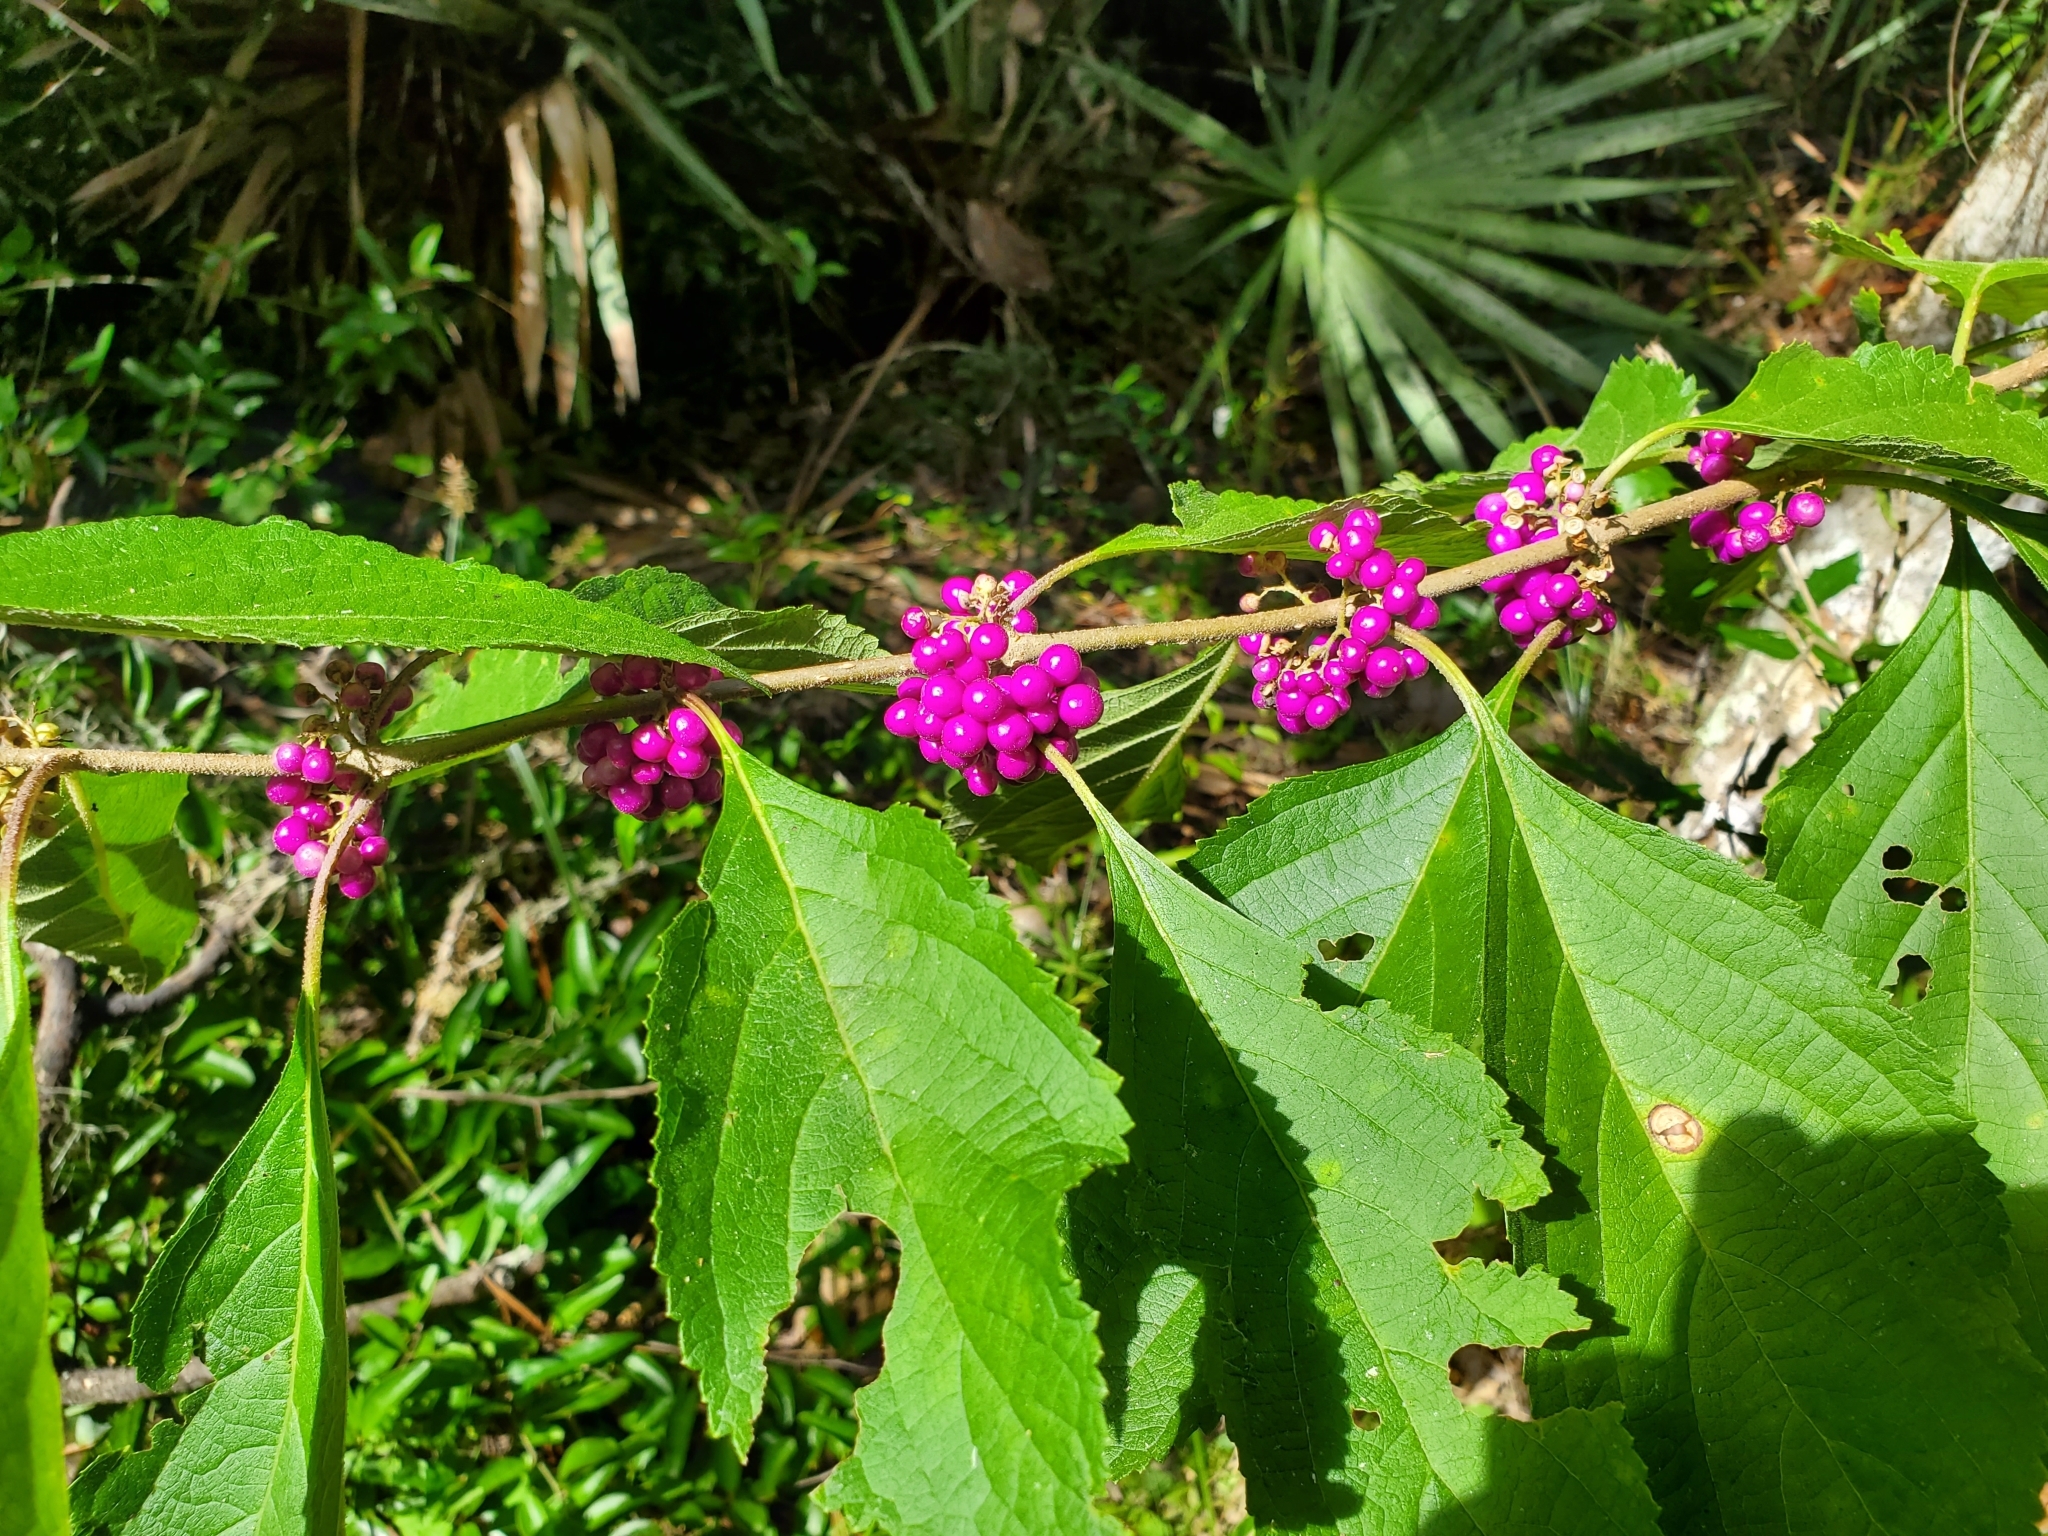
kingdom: Plantae
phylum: Tracheophyta
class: Magnoliopsida
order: Lamiales
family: Lamiaceae
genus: Callicarpa
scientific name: Callicarpa americana
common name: American beautyberry
